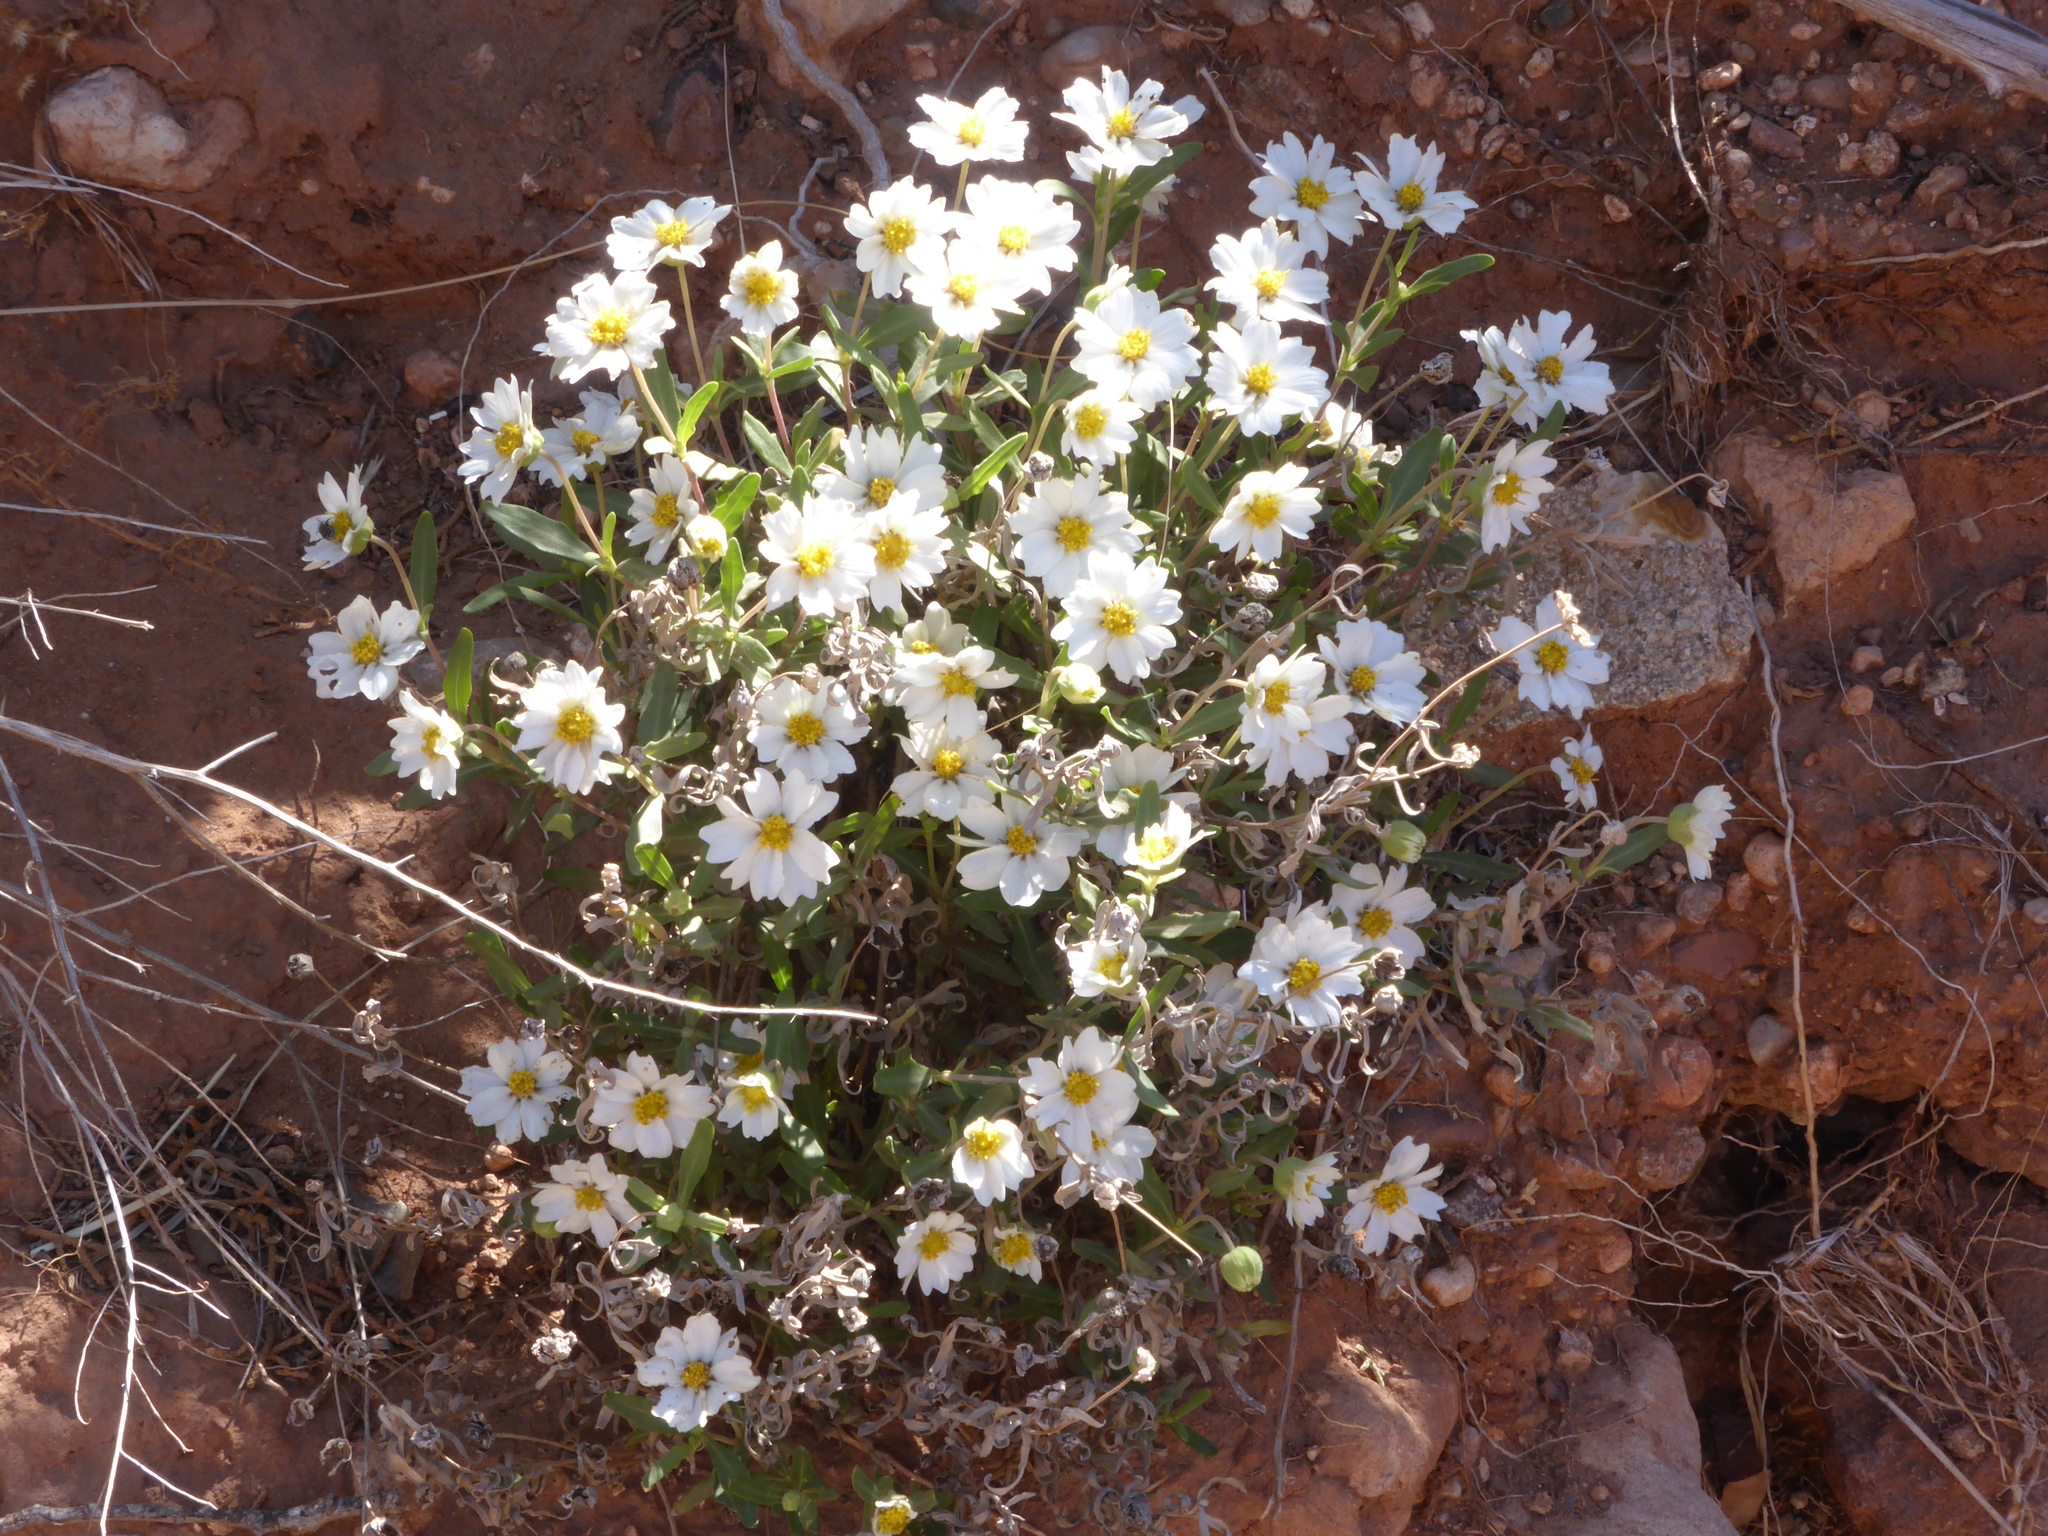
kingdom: Plantae
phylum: Tracheophyta
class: Magnoliopsida
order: Asterales
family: Asteraceae
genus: Melampodium
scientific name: Melampodium leucanthum
